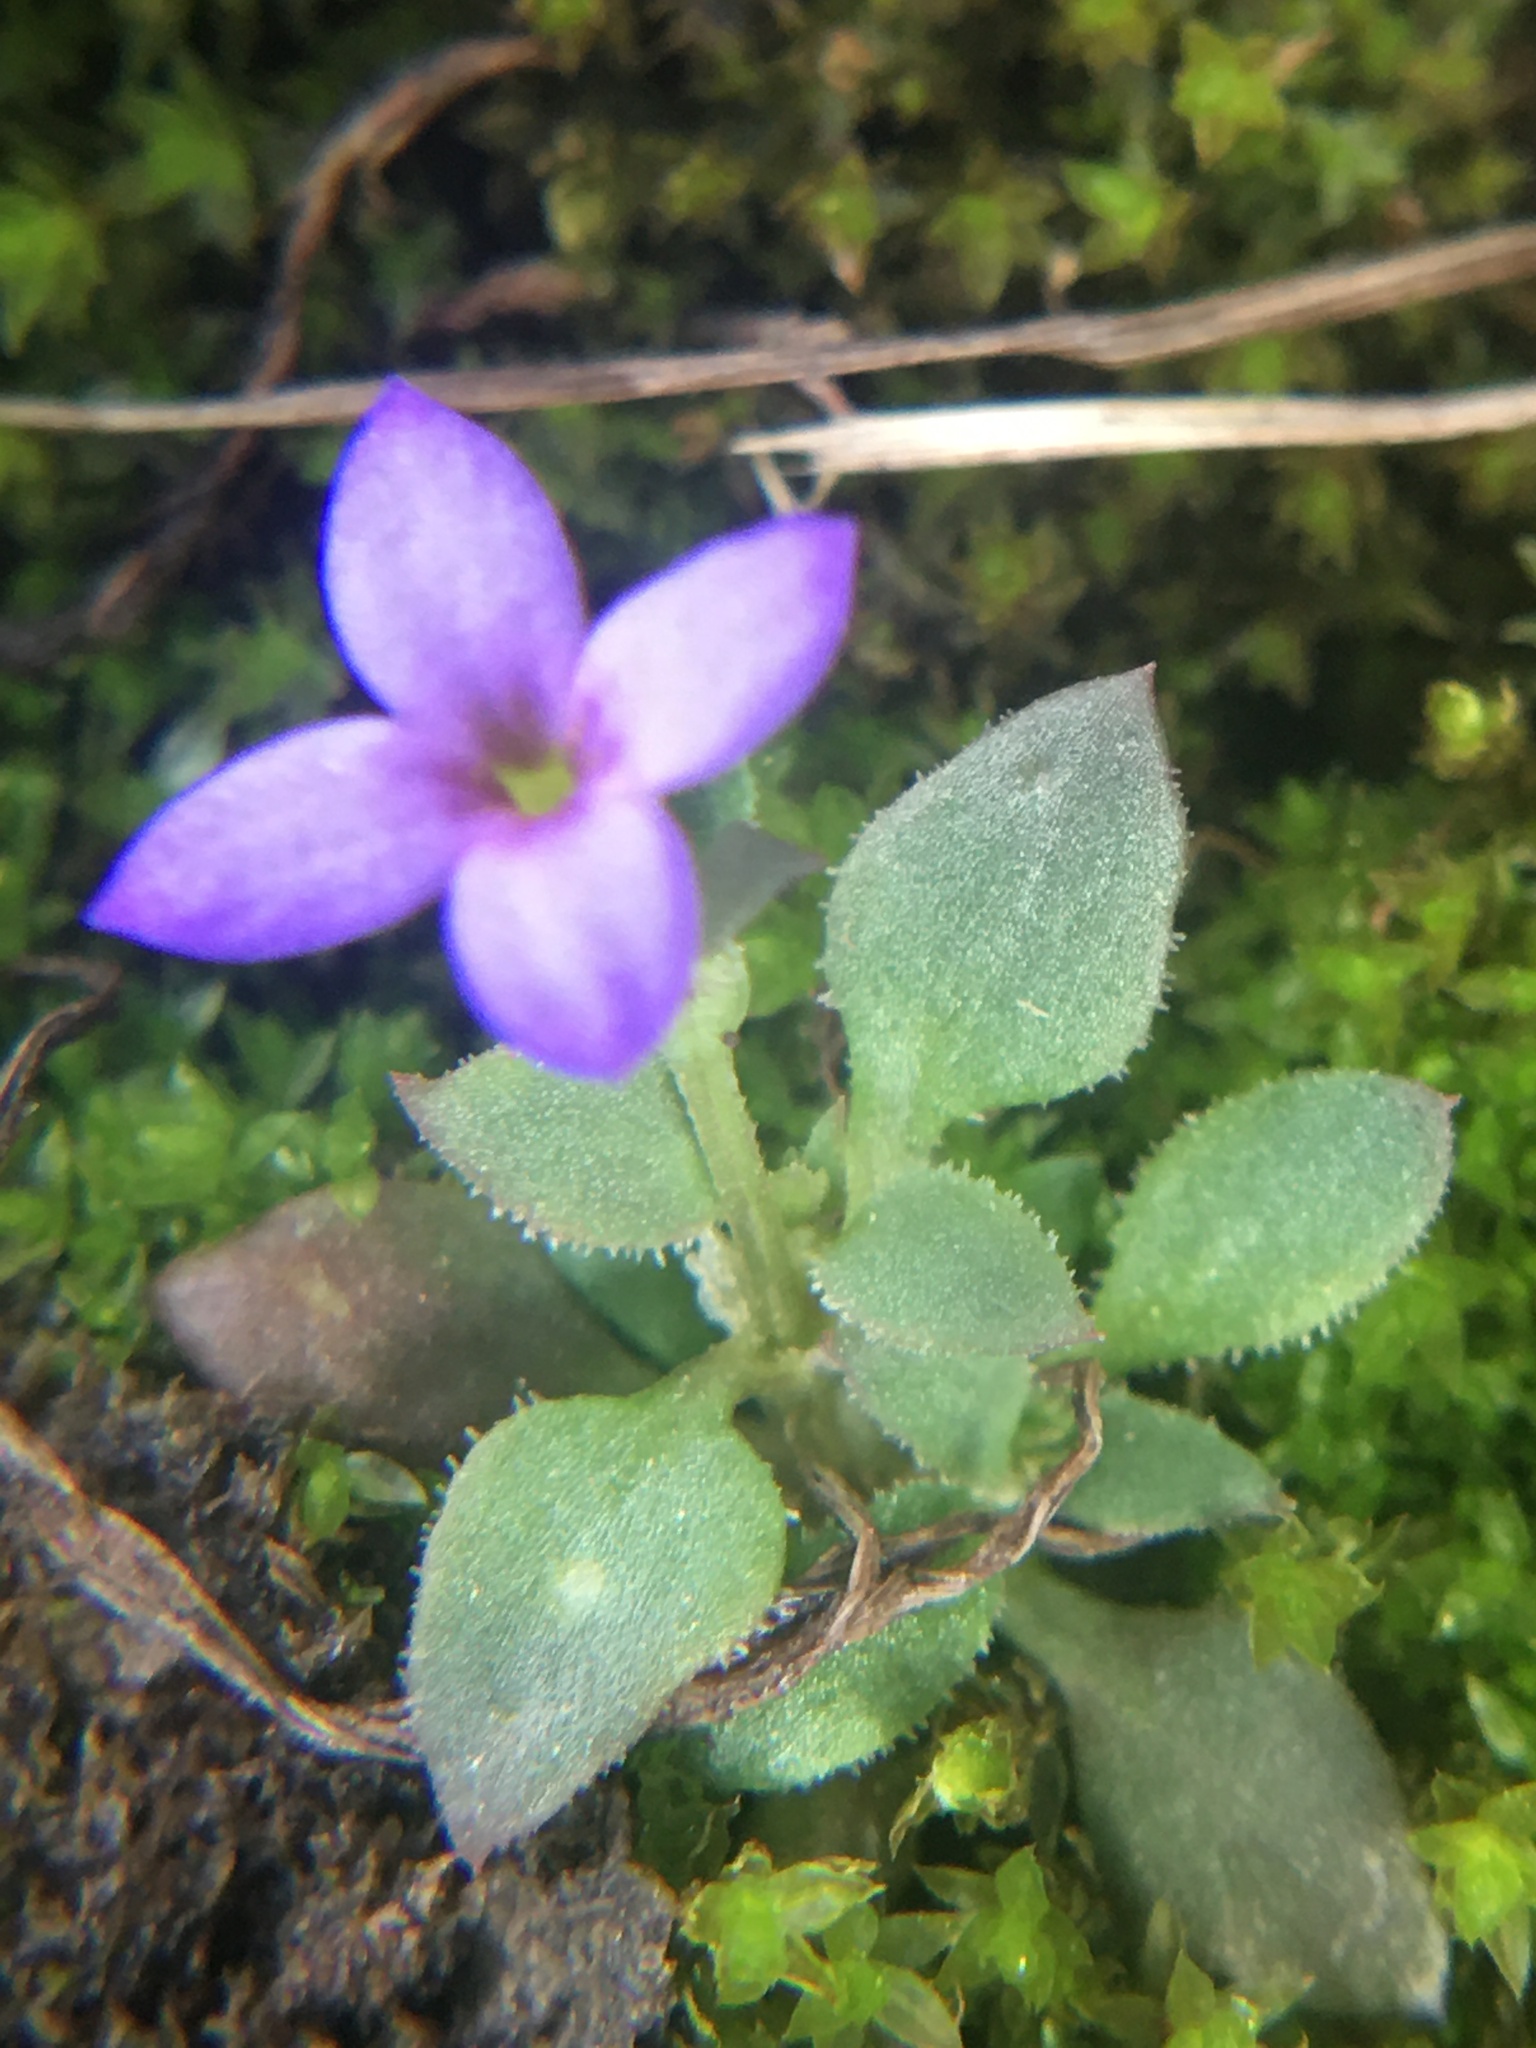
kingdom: Plantae
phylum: Tracheophyta
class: Magnoliopsida
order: Gentianales
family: Rubiaceae
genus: Houstonia
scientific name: Houstonia pusilla
